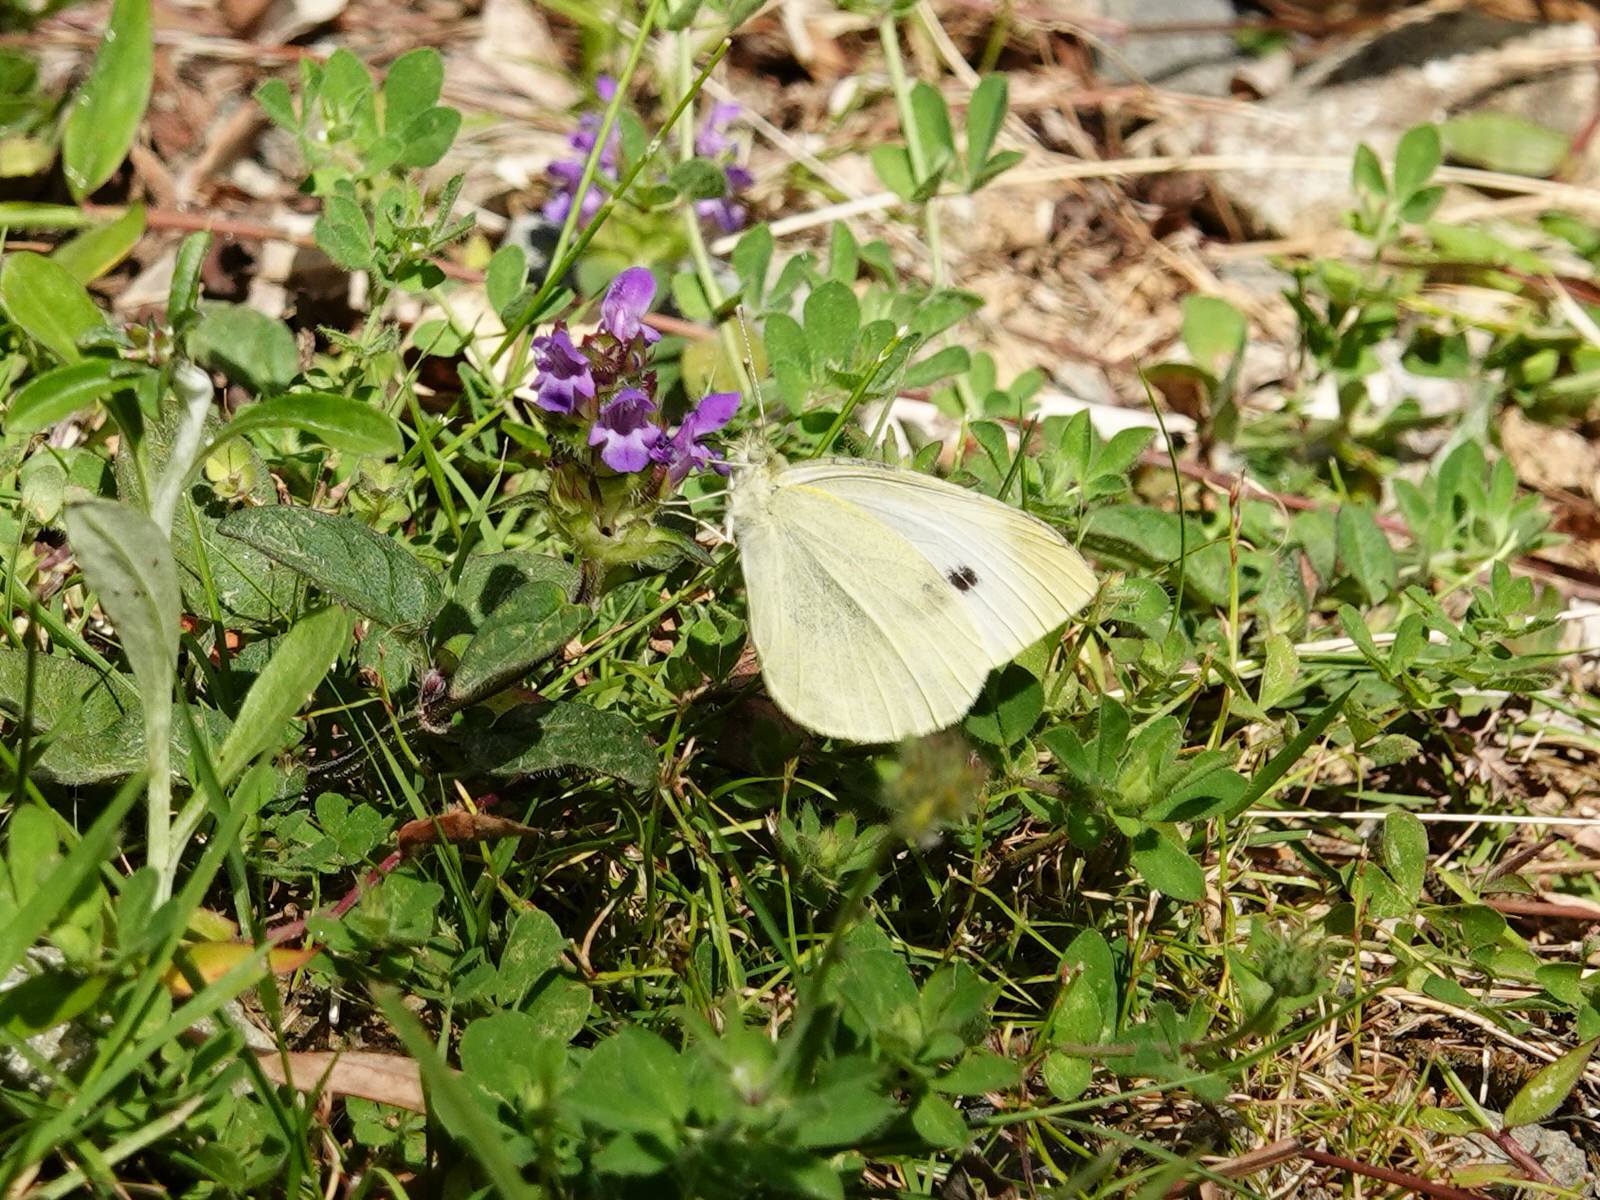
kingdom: Animalia
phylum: Arthropoda
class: Insecta
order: Lepidoptera
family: Pieridae
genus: Pieris
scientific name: Pieris rapae
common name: Small white
